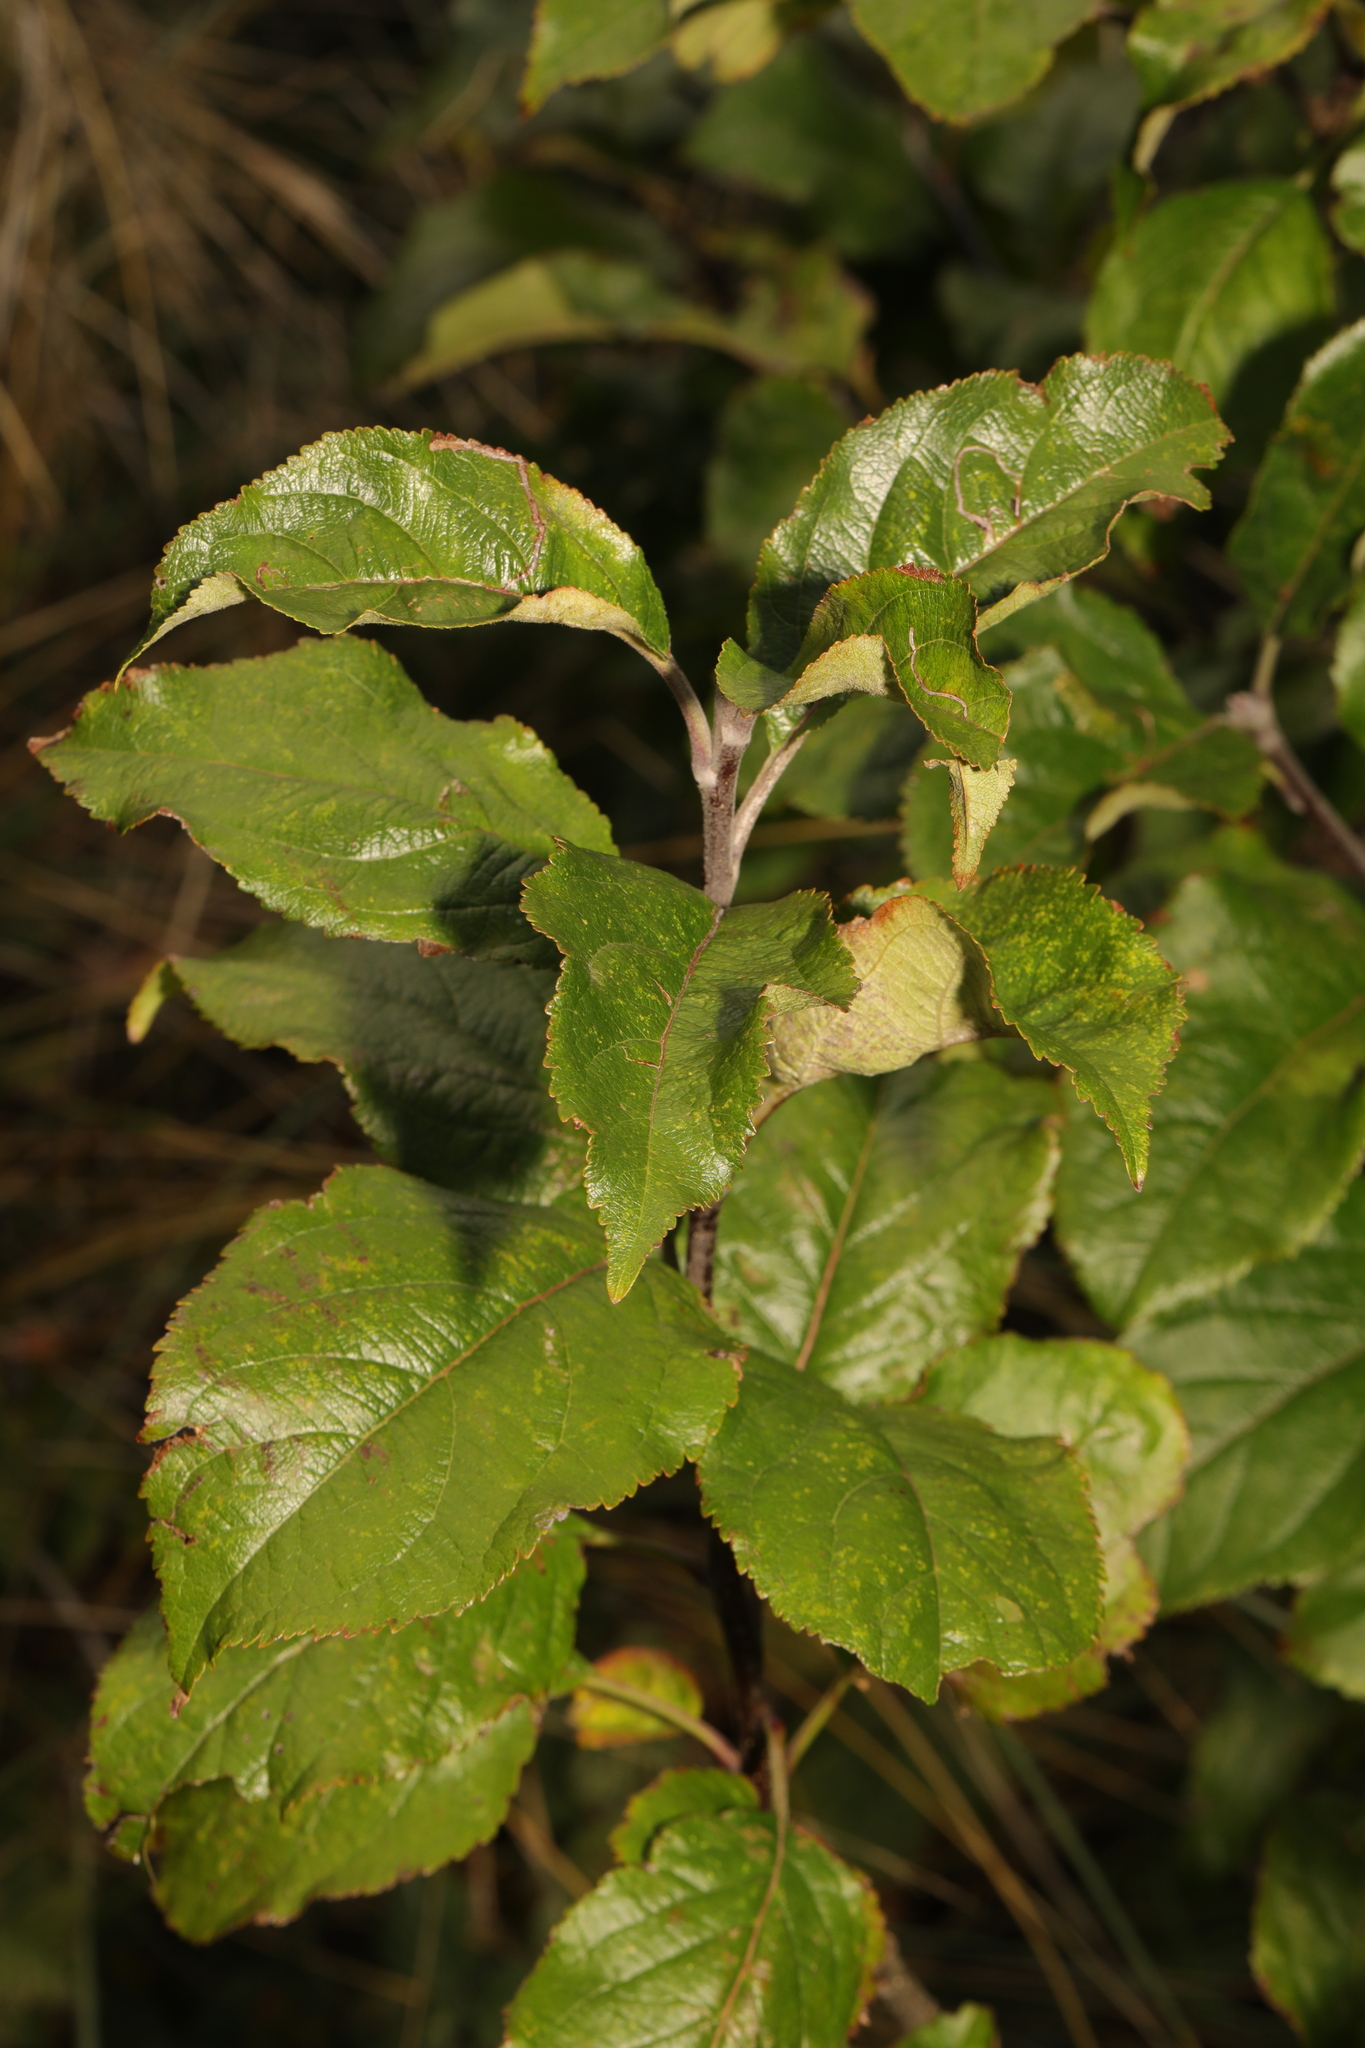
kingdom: Plantae
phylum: Tracheophyta
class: Magnoliopsida
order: Rosales
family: Rosaceae
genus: Malus
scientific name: Malus domestica
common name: Apple
